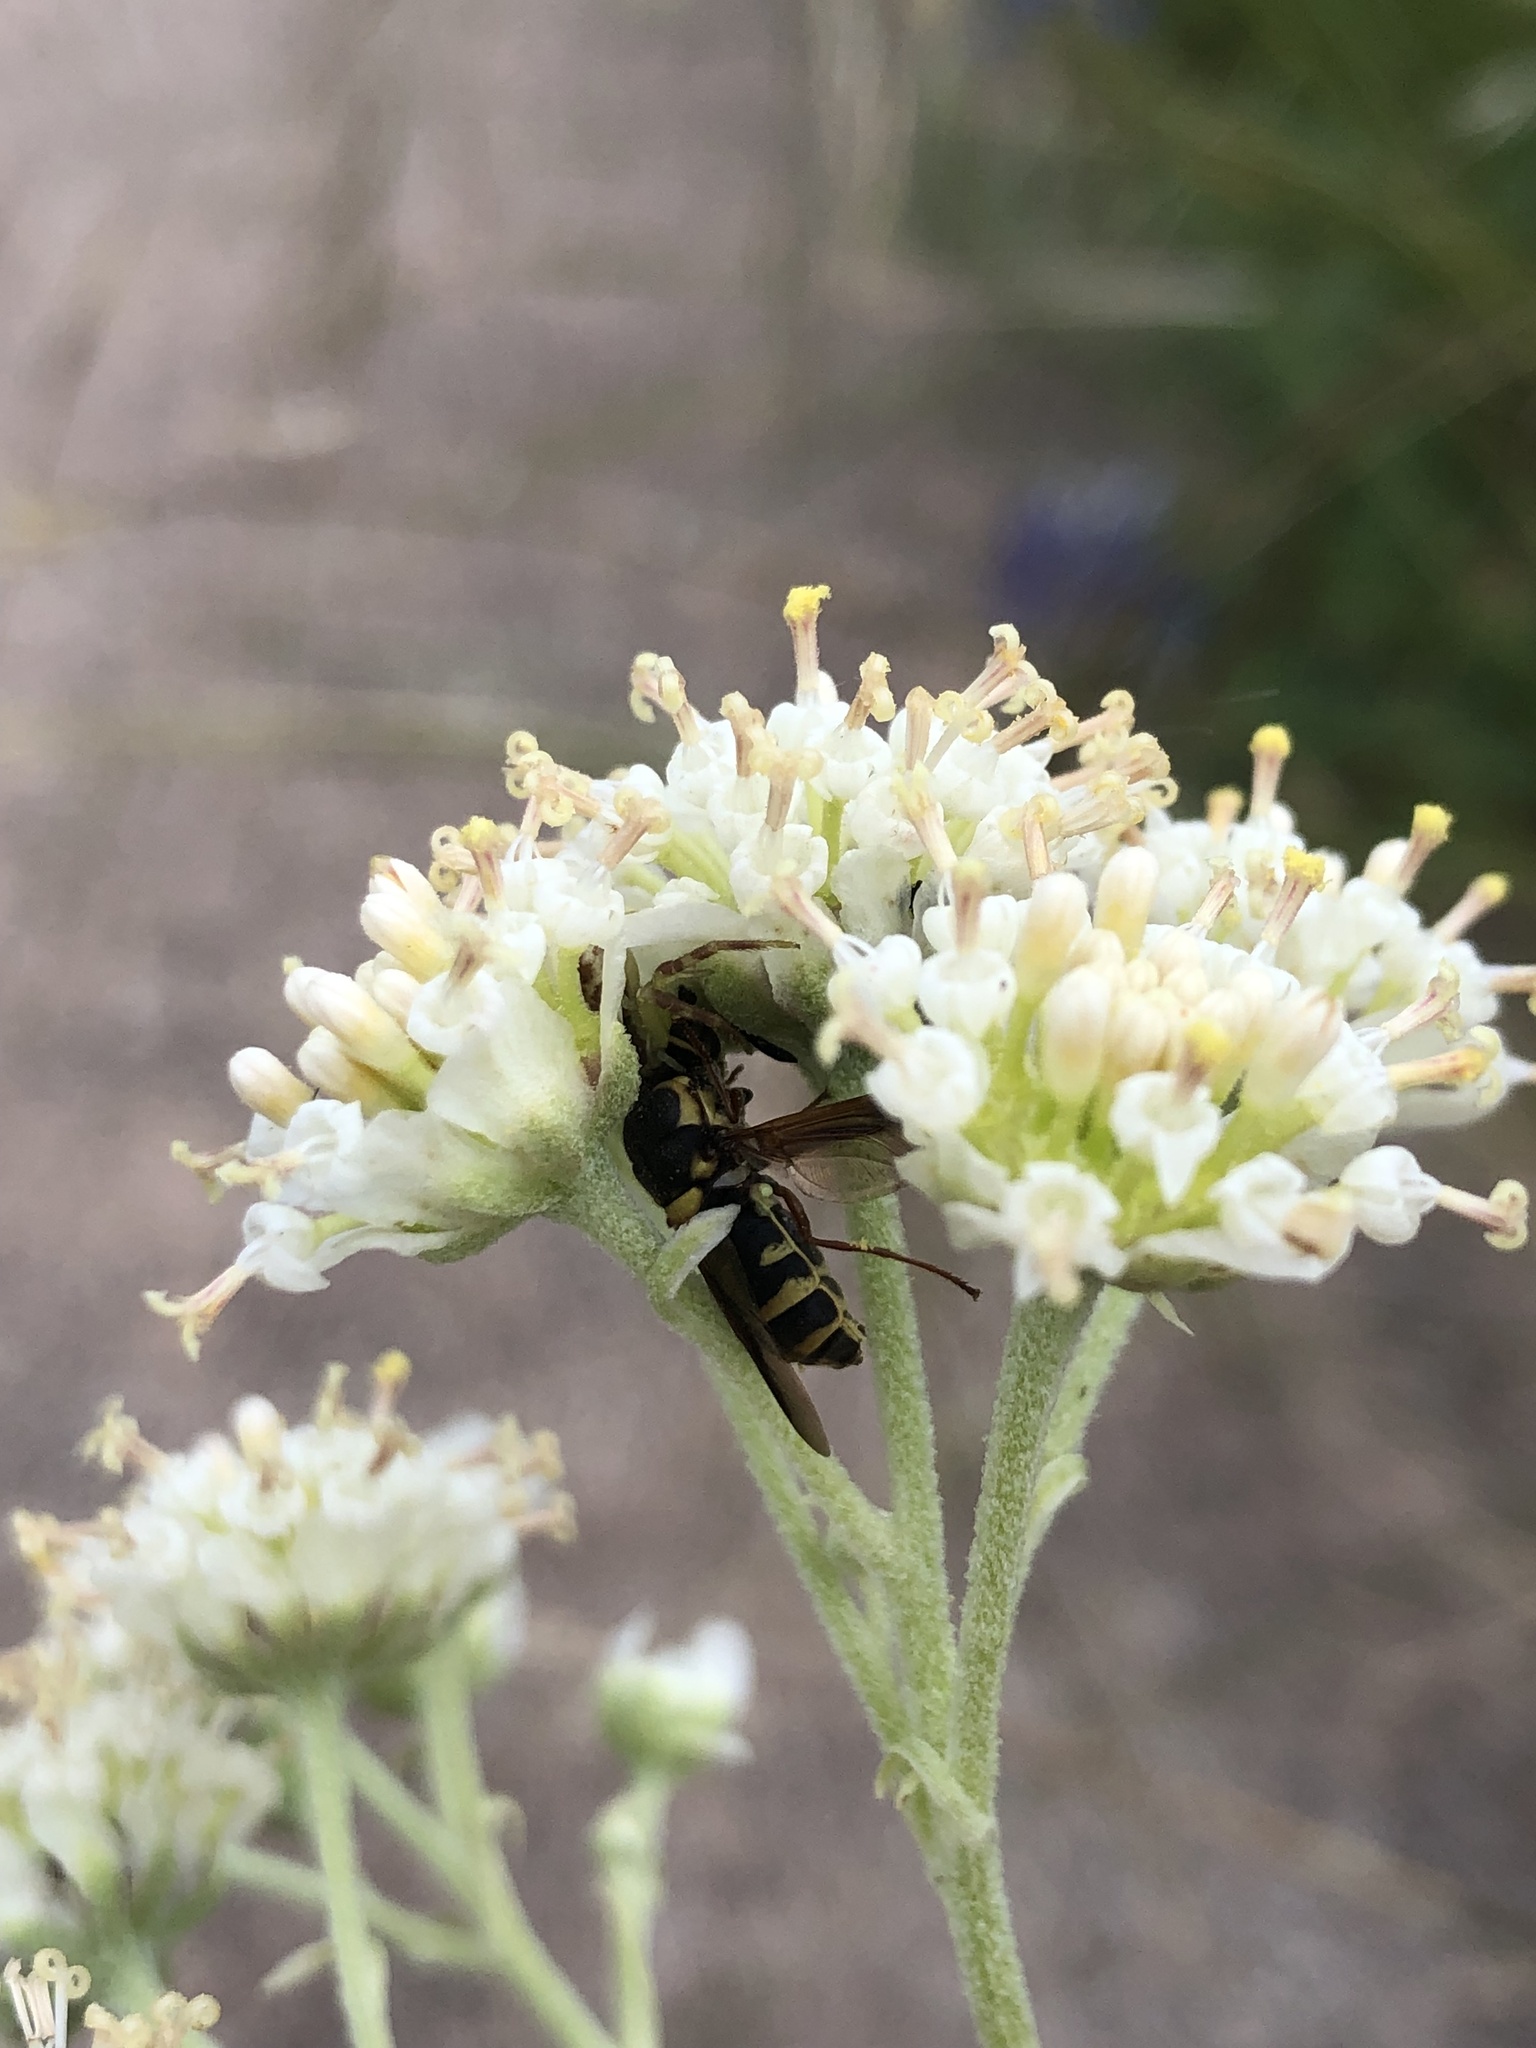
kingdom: Animalia
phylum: Arthropoda
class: Insecta
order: Diptera
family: Stratiomyidae
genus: Hoplitimyia
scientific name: Hoplitimyia constans
